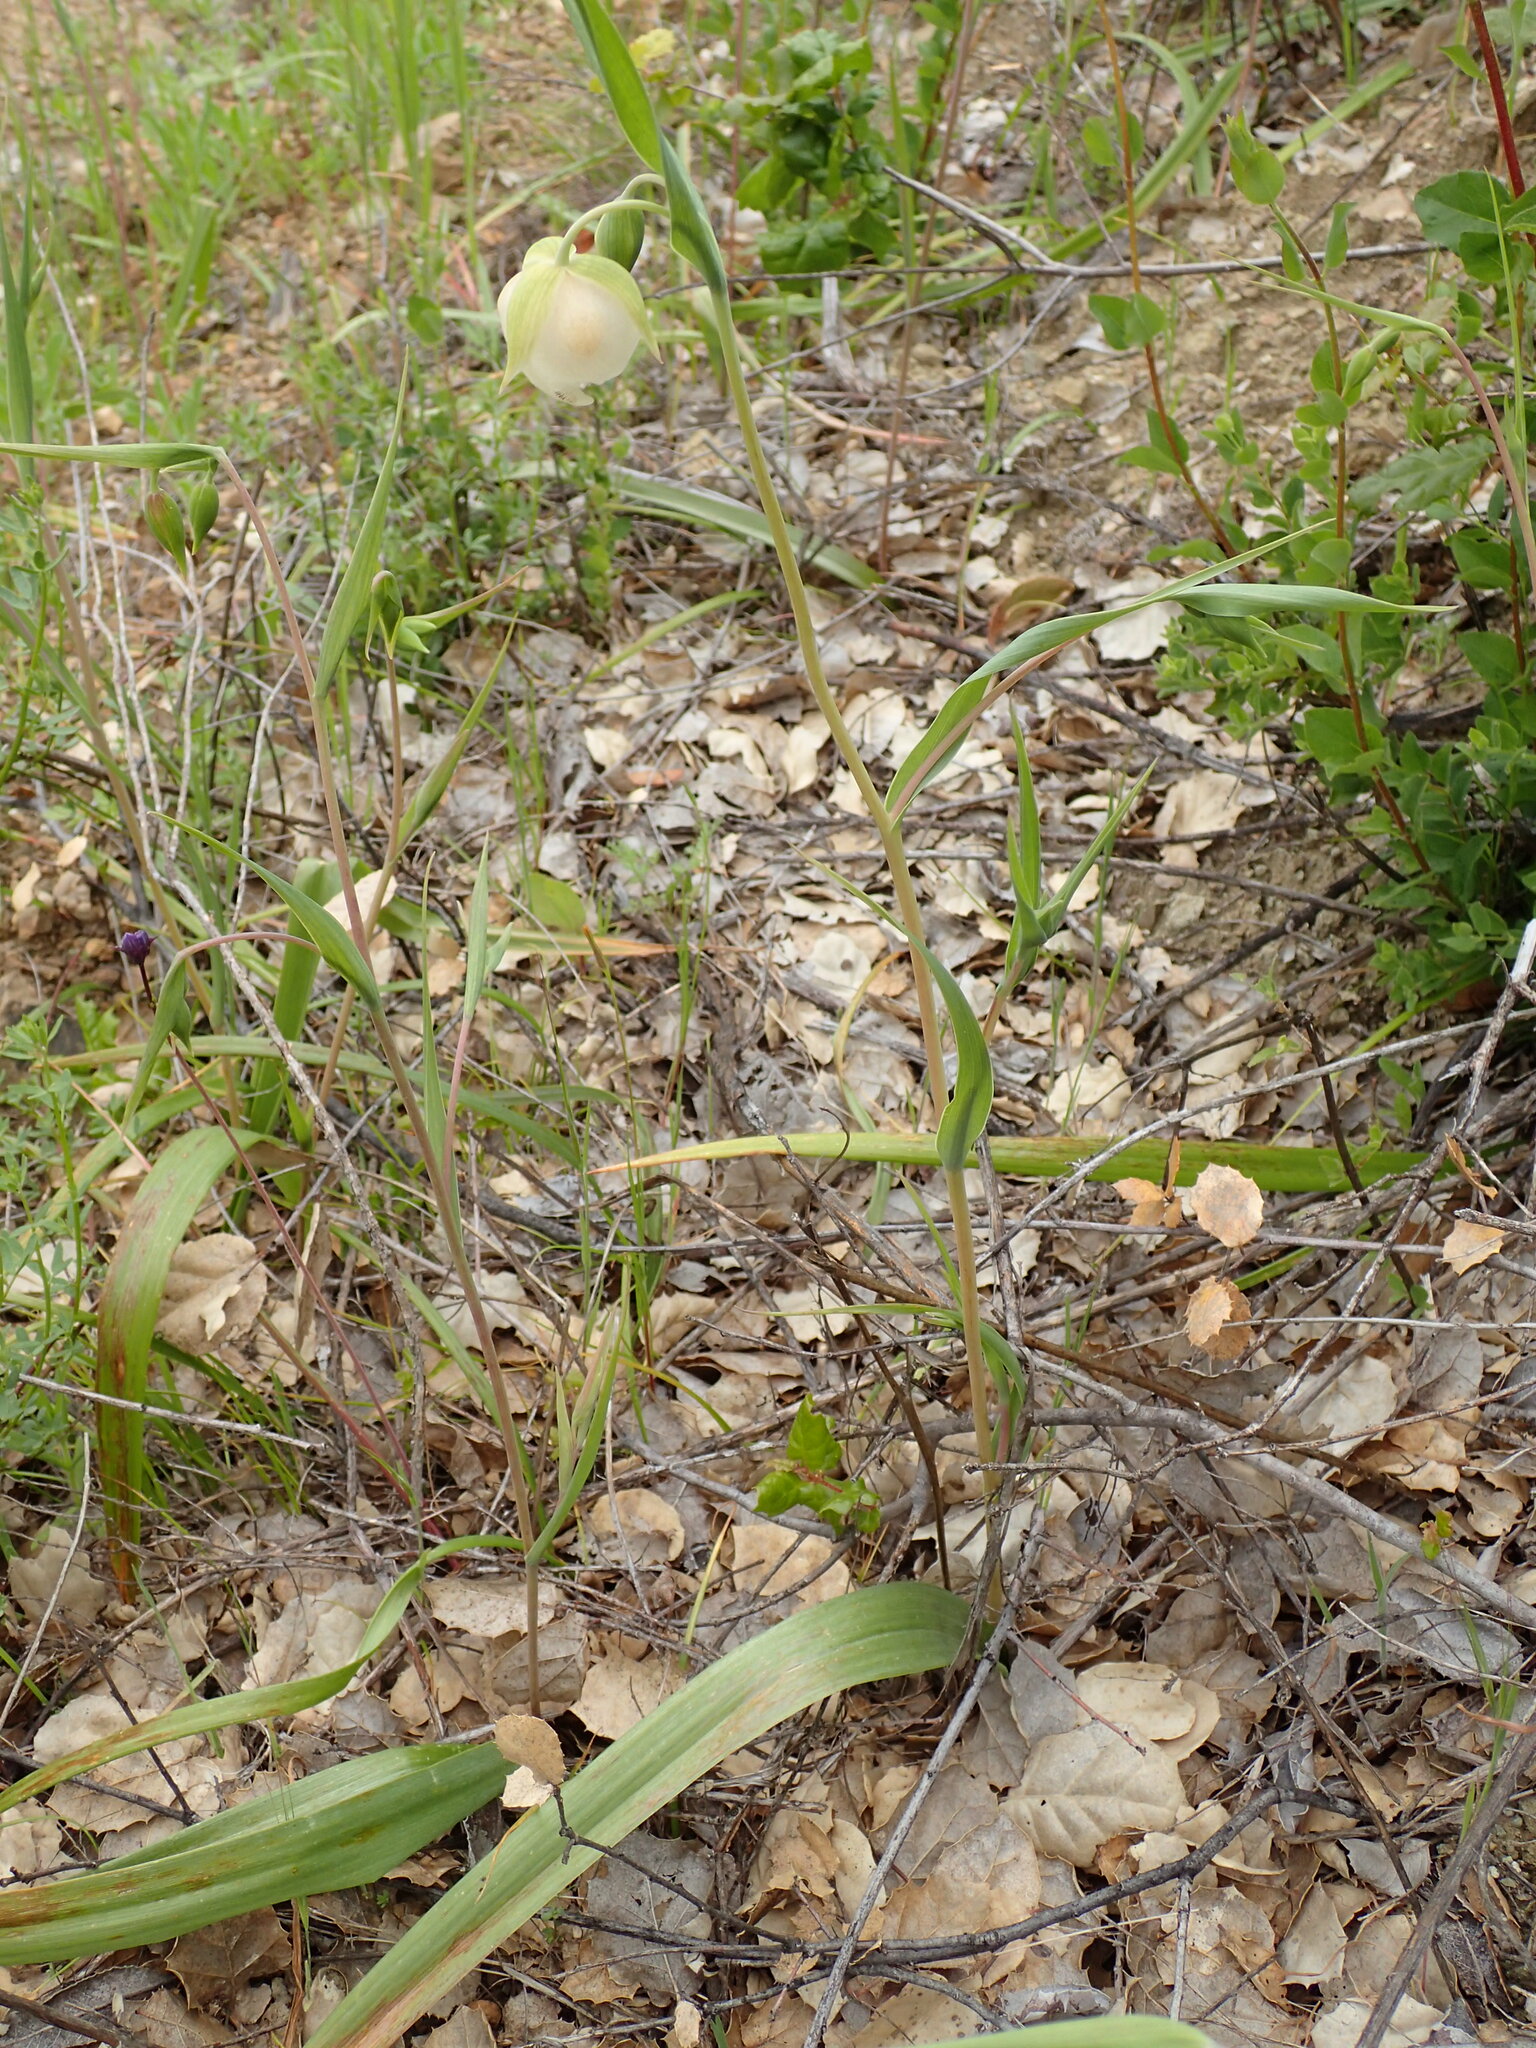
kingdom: Plantae
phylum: Tracheophyta
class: Liliopsida
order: Liliales
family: Liliaceae
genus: Calochortus
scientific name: Calochortus albus
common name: Fairy-lantern
